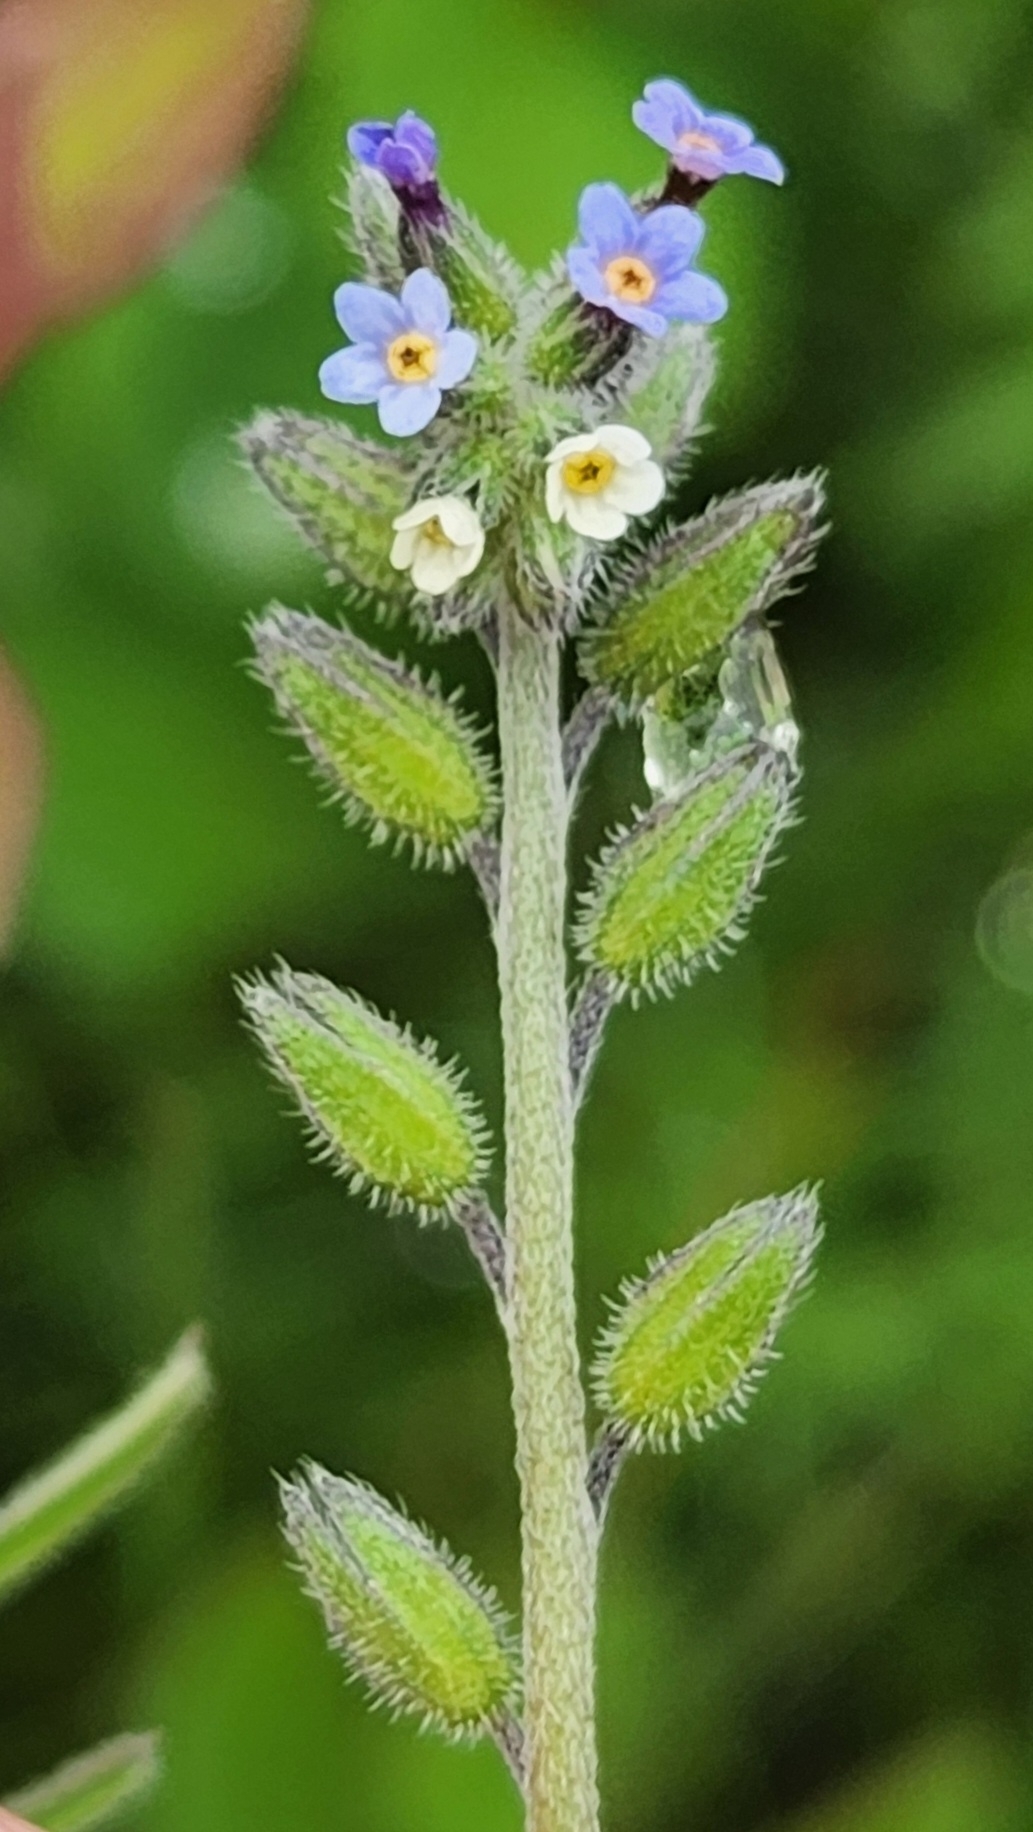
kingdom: Plantae
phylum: Tracheophyta
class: Magnoliopsida
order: Boraginales
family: Boraginaceae
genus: Myosotis
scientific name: Myosotis discolor
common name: Changing forget-me-not
